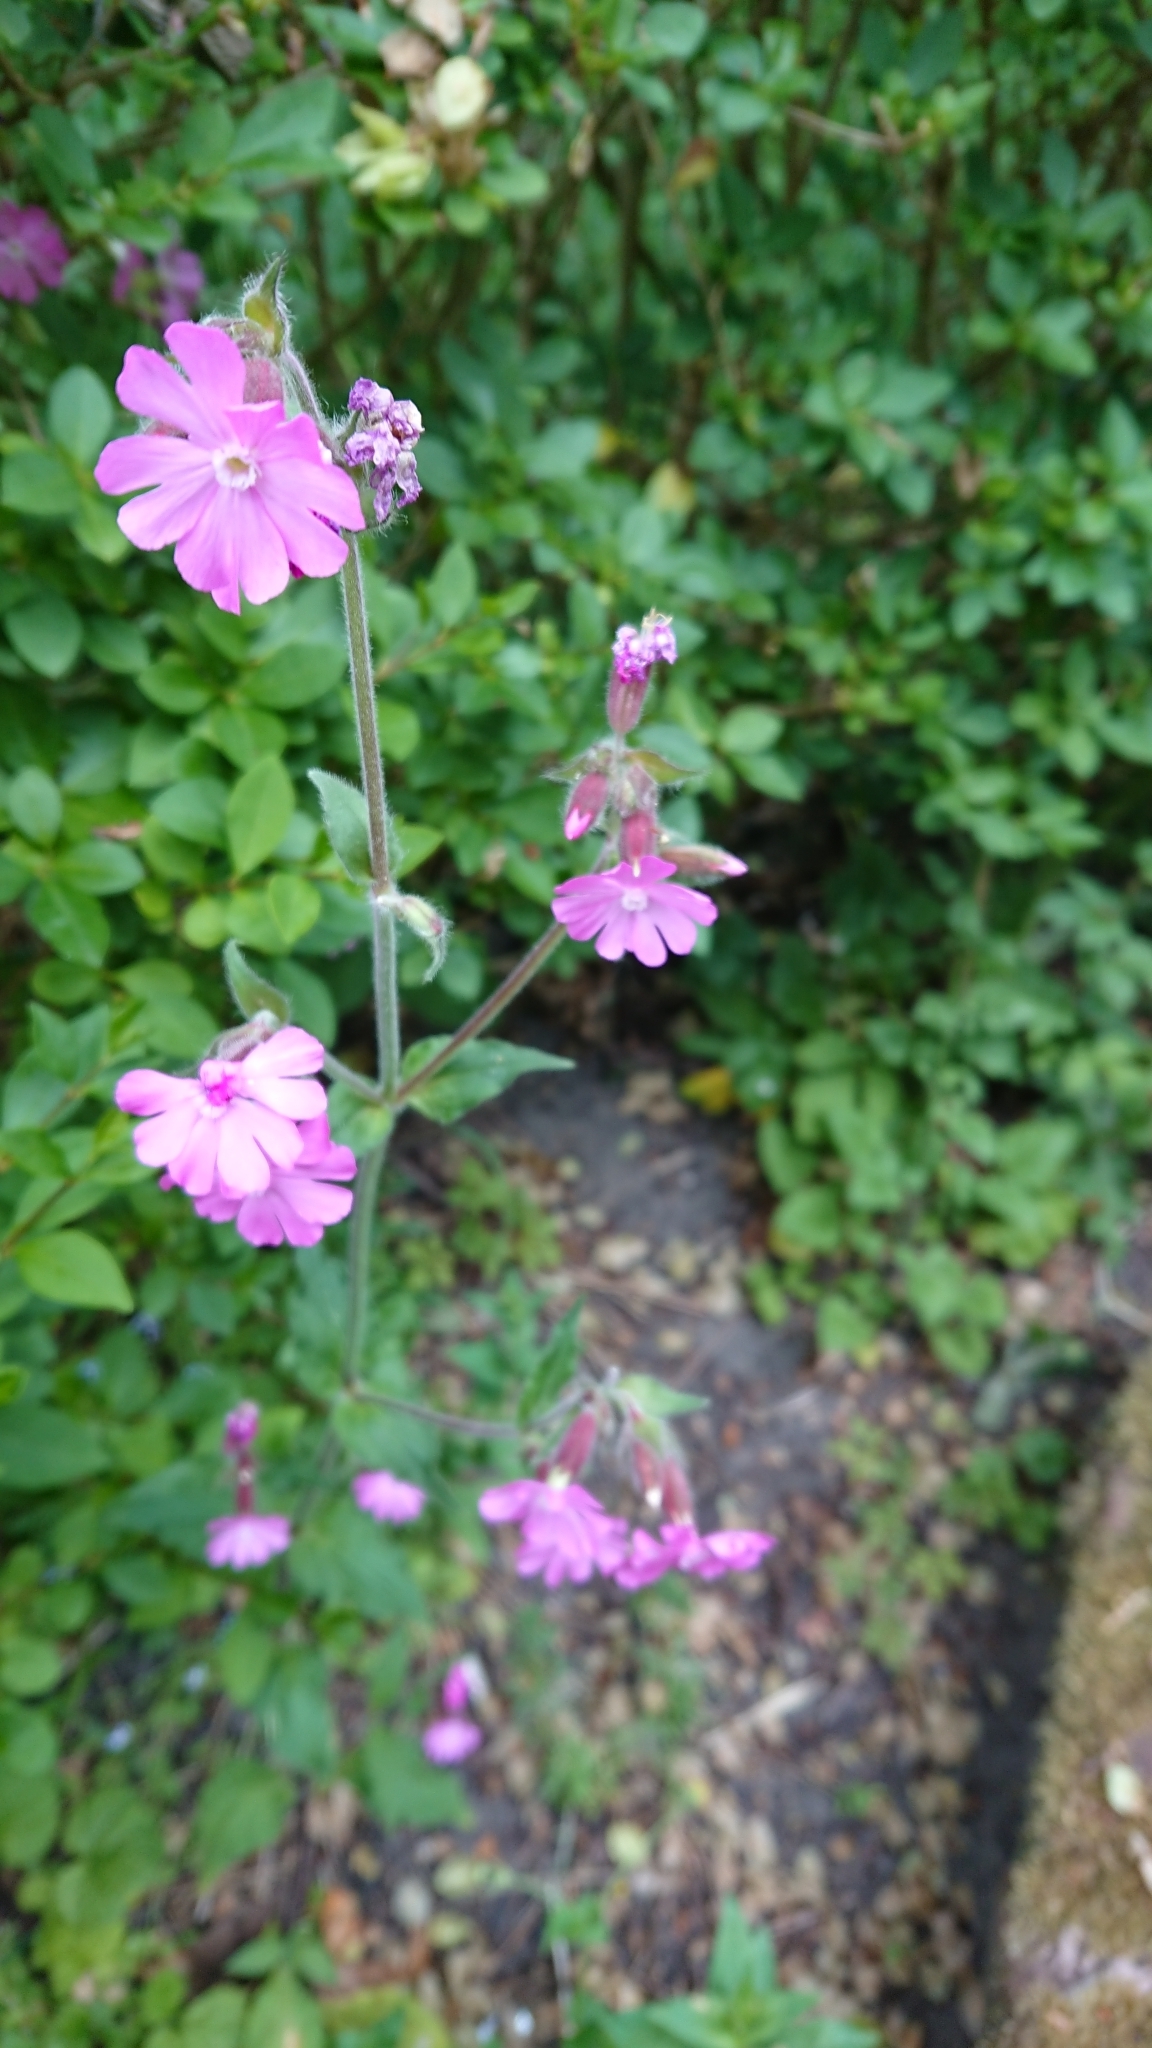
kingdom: Plantae
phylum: Tracheophyta
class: Magnoliopsida
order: Caryophyllales
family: Caryophyllaceae
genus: Silene
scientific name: Silene dioica
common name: Red campion
